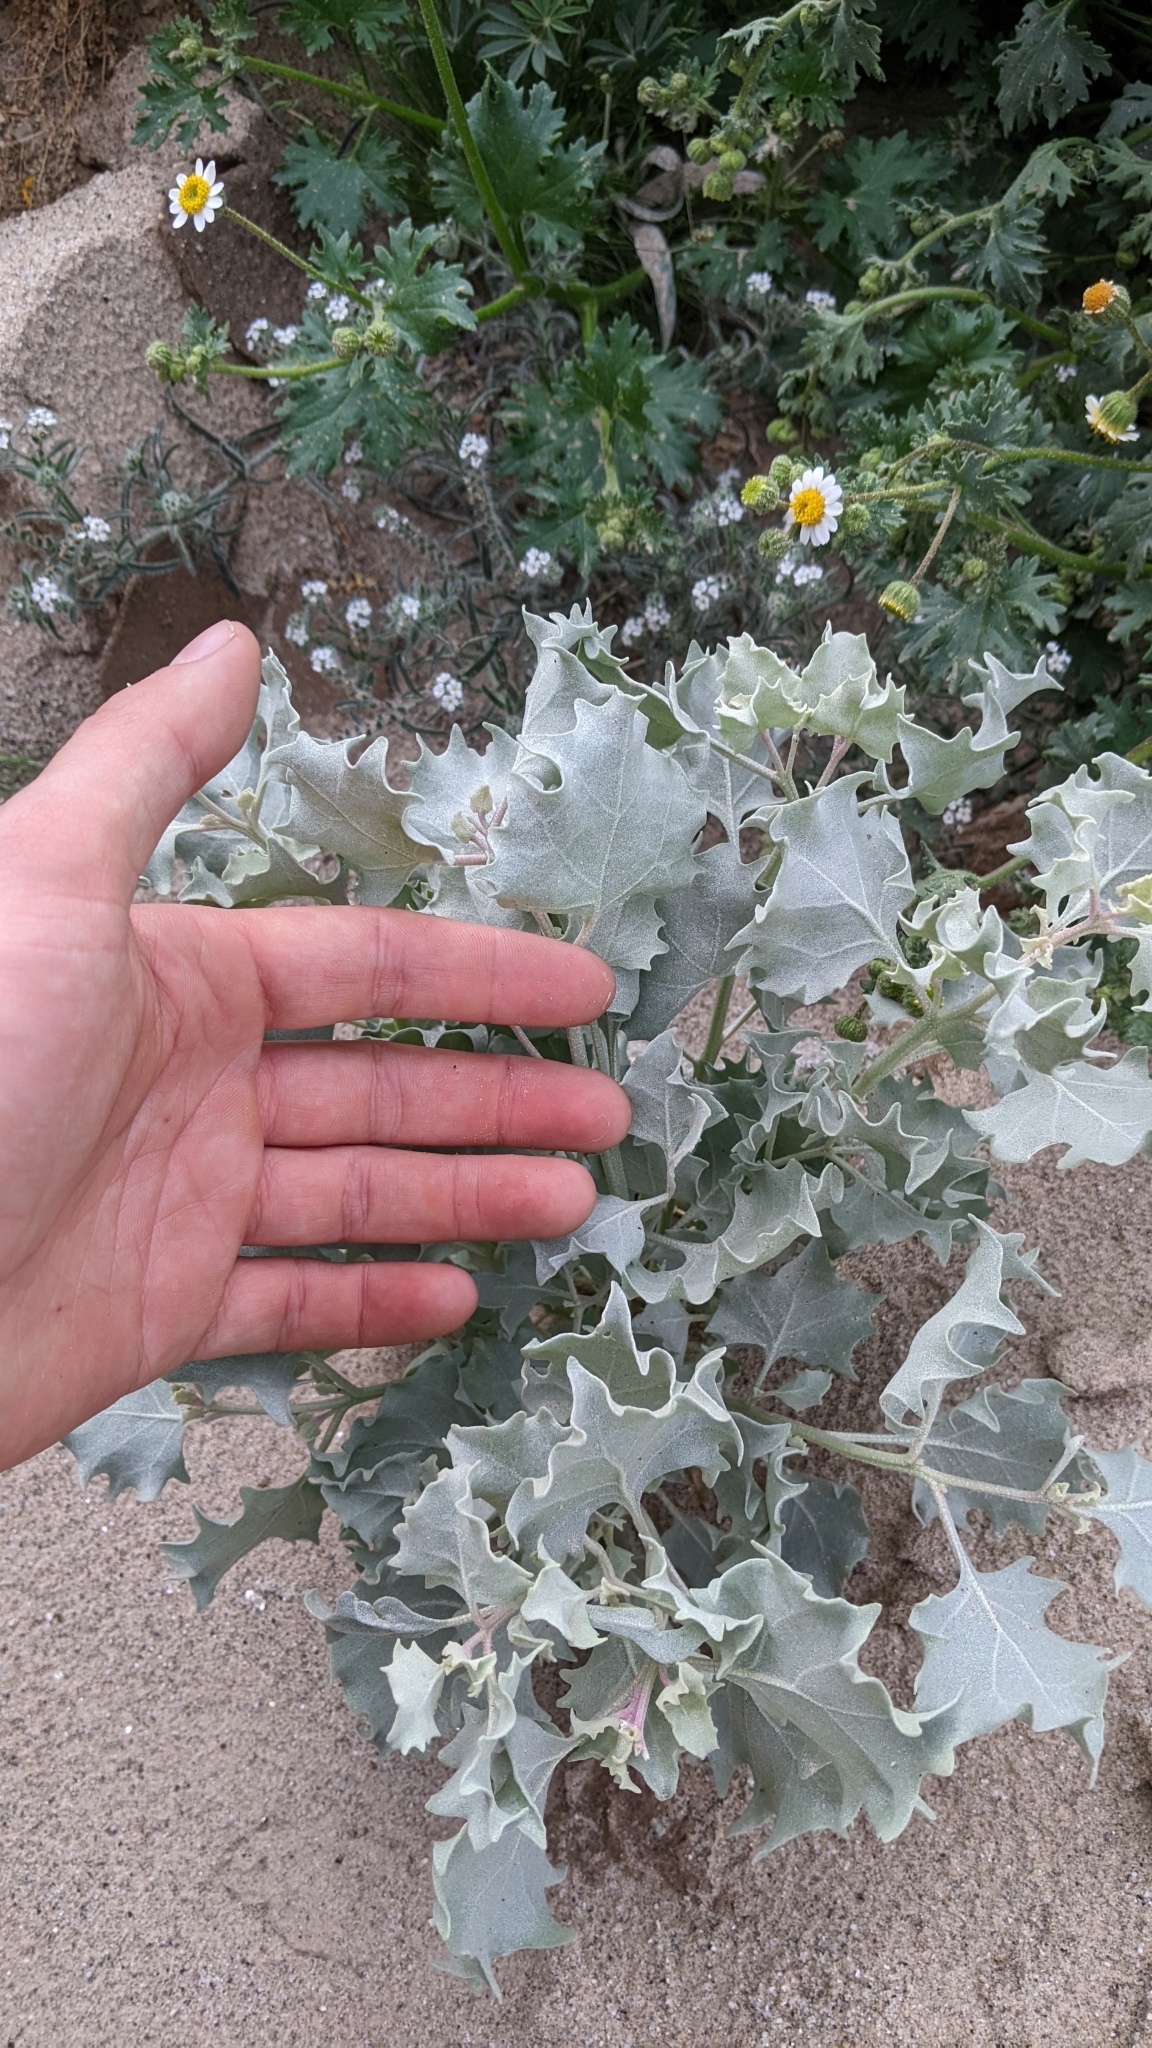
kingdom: Plantae
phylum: Tracheophyta
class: Magnoliopsida
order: Caryophyllales
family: Amaranthaceae
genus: Atriplex
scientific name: Atriplex hymenelytra
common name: Desert-holly
